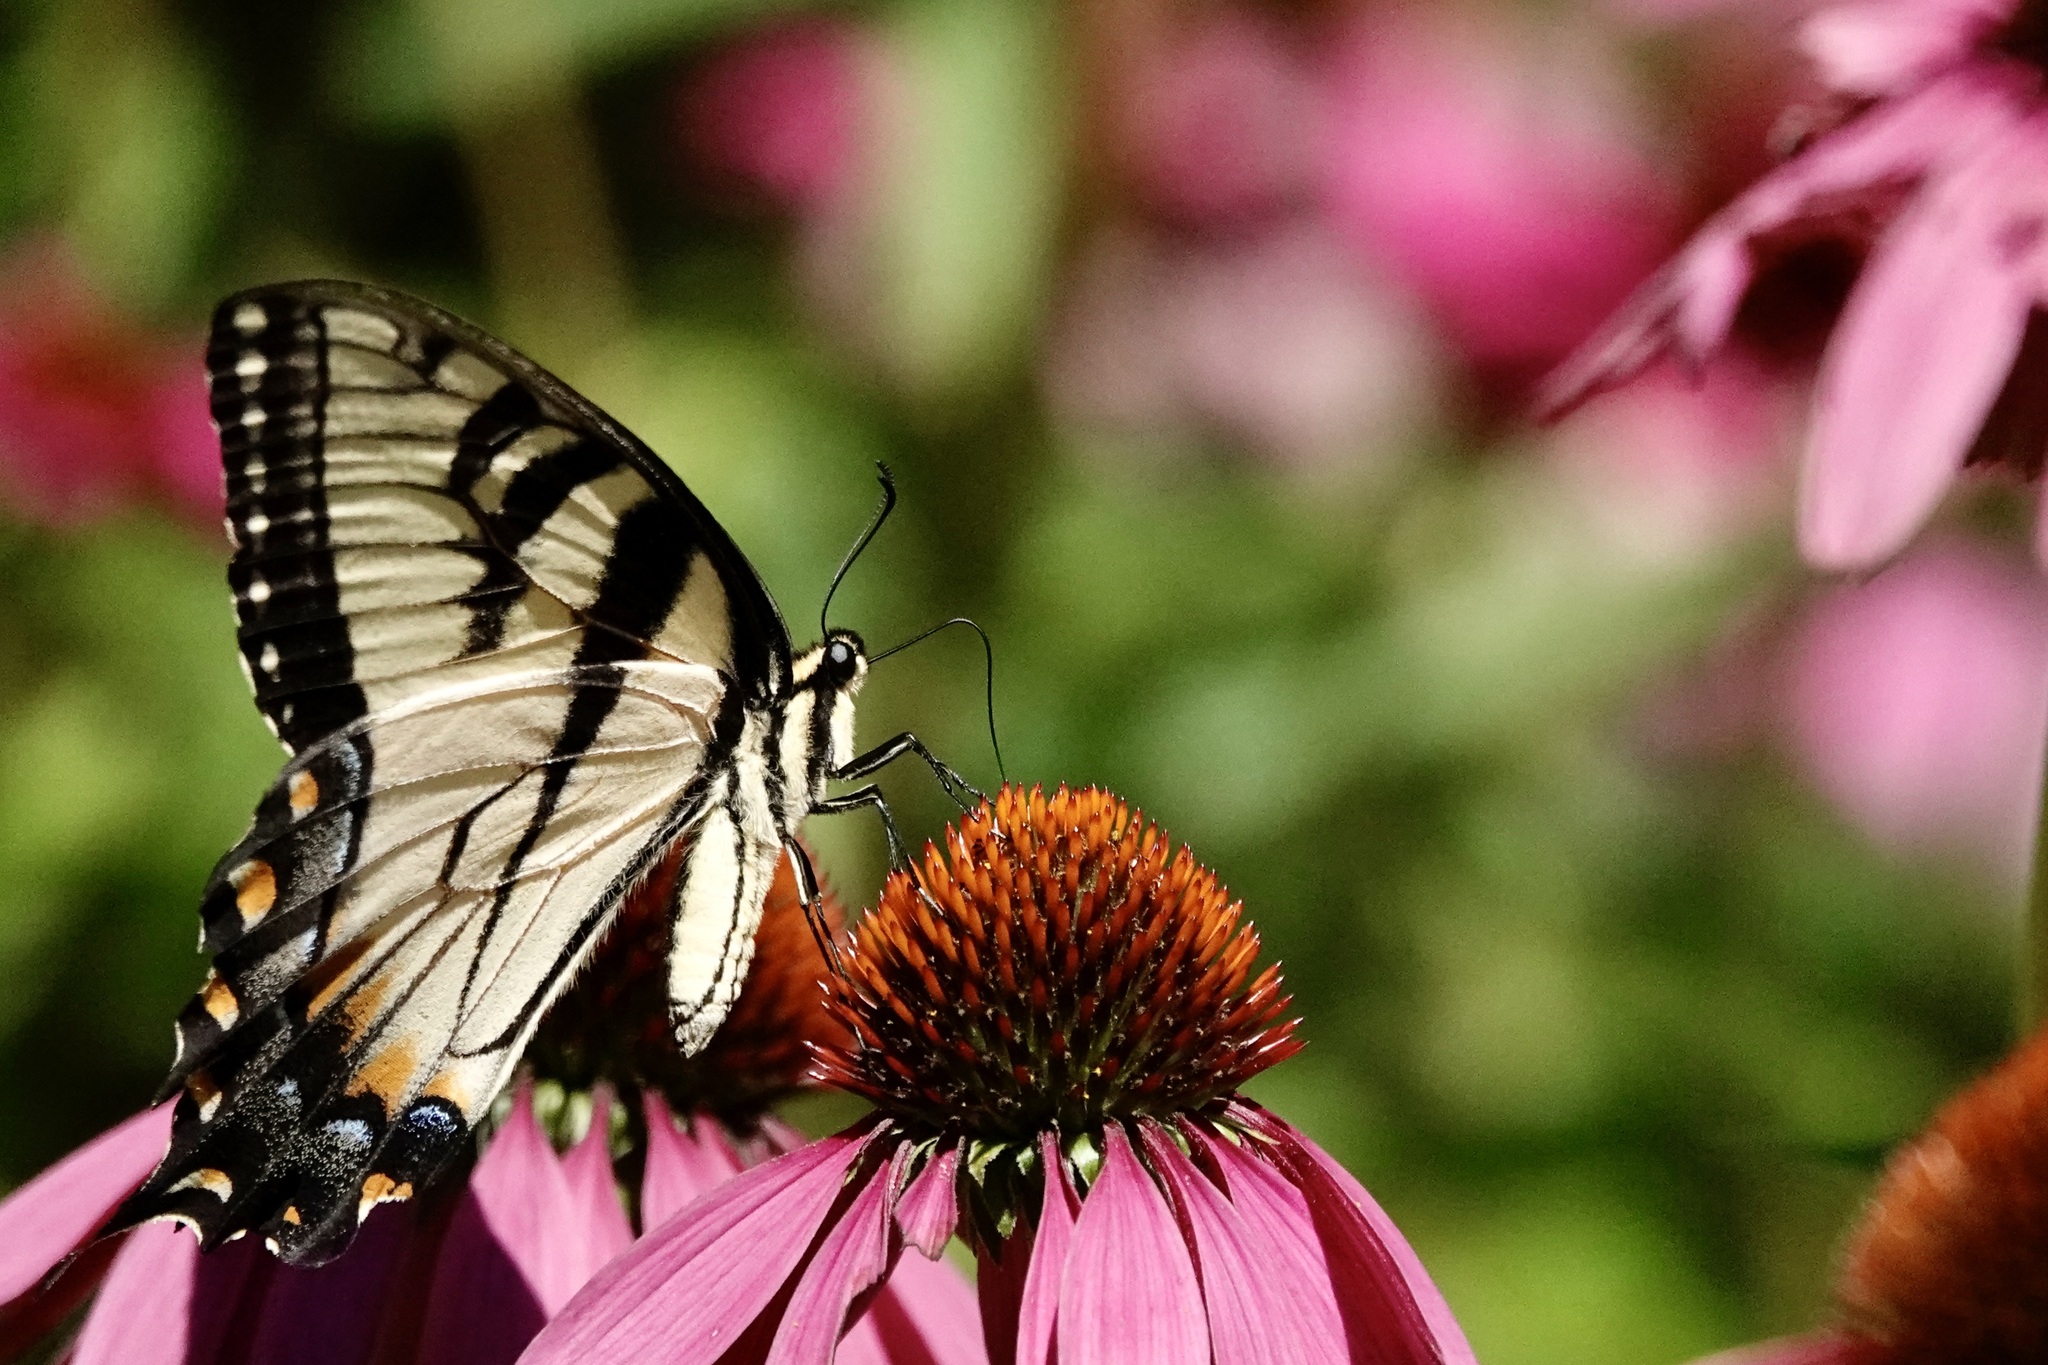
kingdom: Animalia
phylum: Arthropoda
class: Insecta
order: Lepidoptera
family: Papilionidae
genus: Papilio
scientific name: Papilio glaucus
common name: Tiger swallowtail
